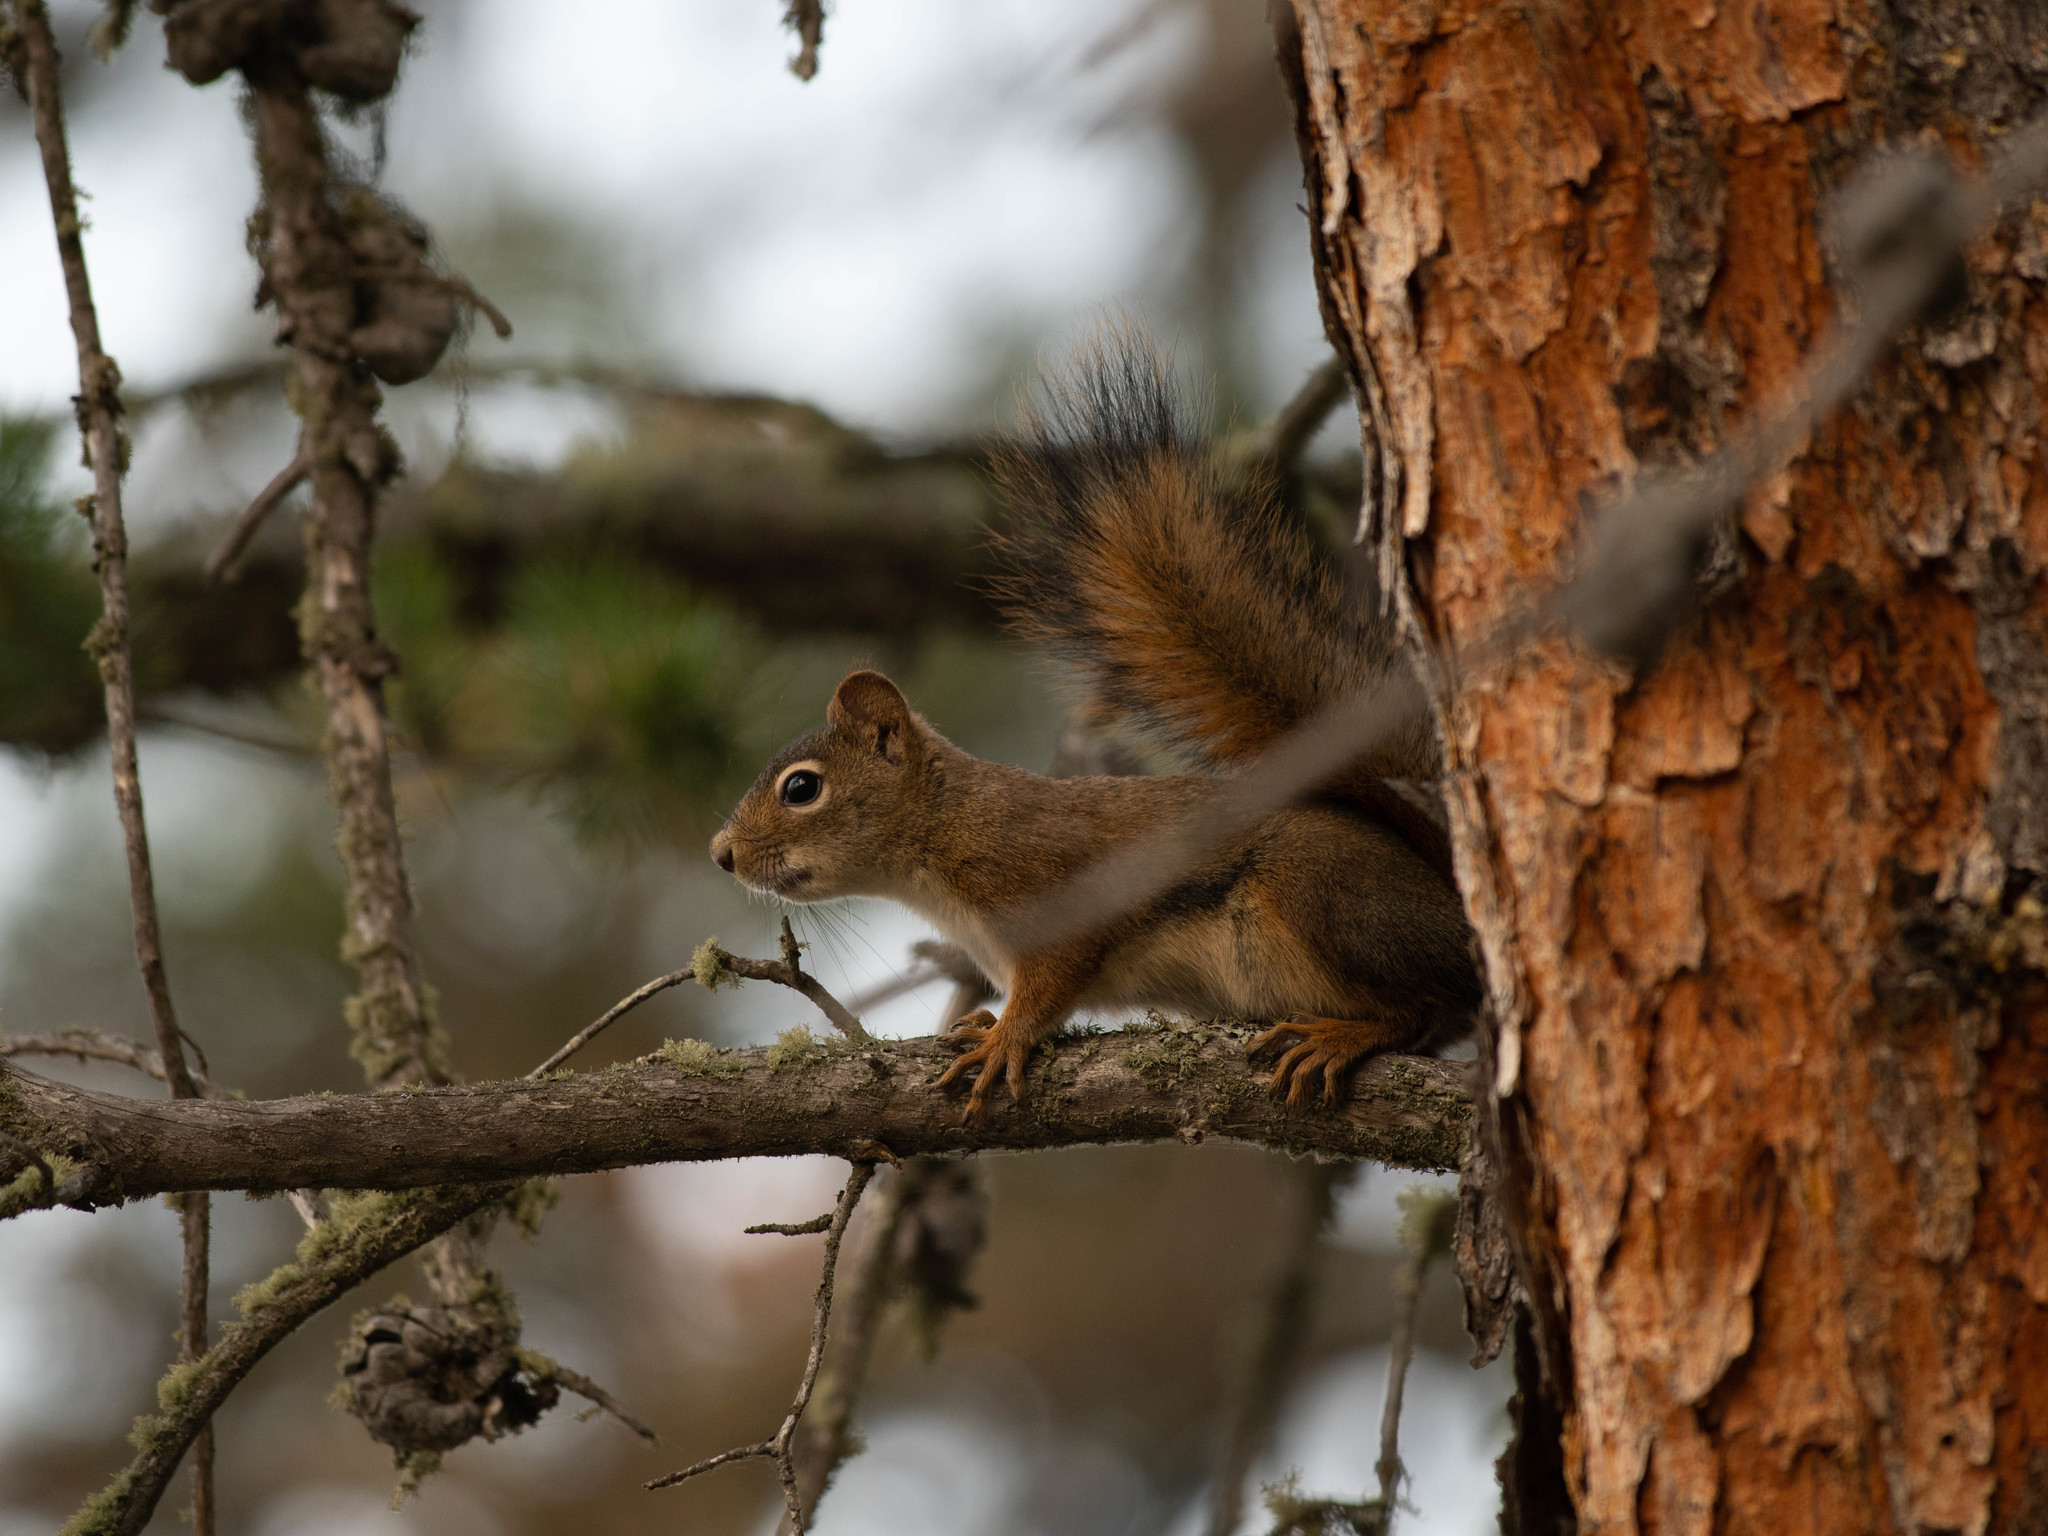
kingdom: Animalia
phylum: Chordata
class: Mammalia
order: Rodentia
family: Sciuridae
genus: Tamiasciurus
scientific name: Tamiasciurus hudsonicus
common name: Red squirrel
